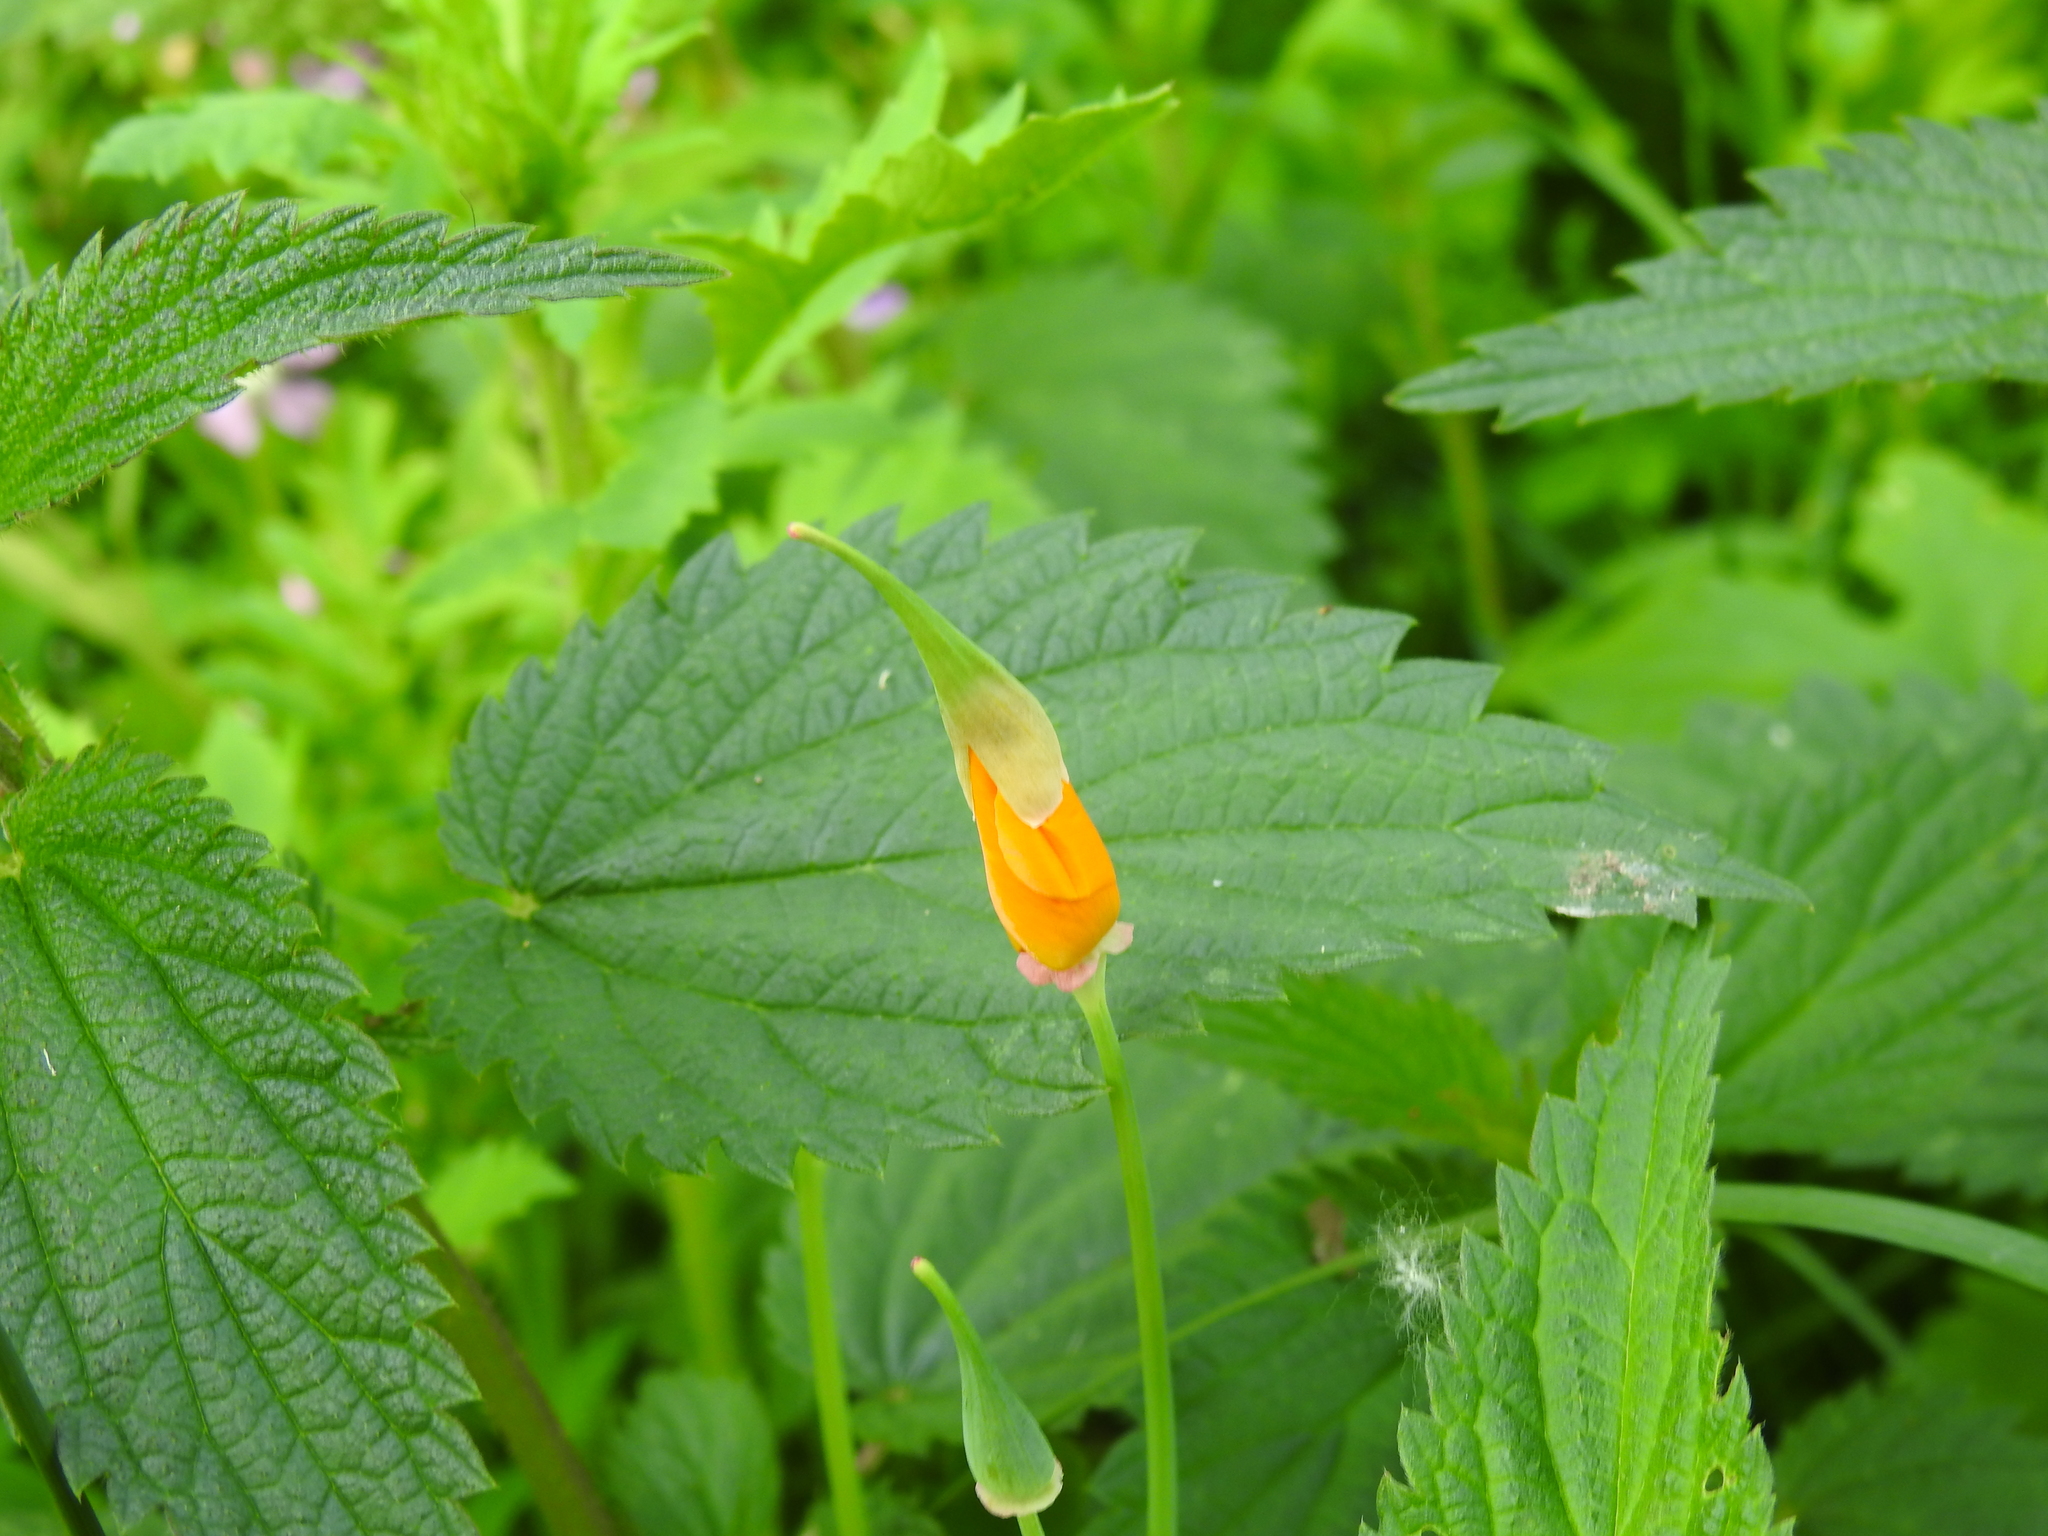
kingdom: Plantae
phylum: Tracheophyta
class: Magnoliopsida
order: Ranunculales
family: Papaveraceae
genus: Eschscholzia
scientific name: Eschscholzia californica
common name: California poppy
